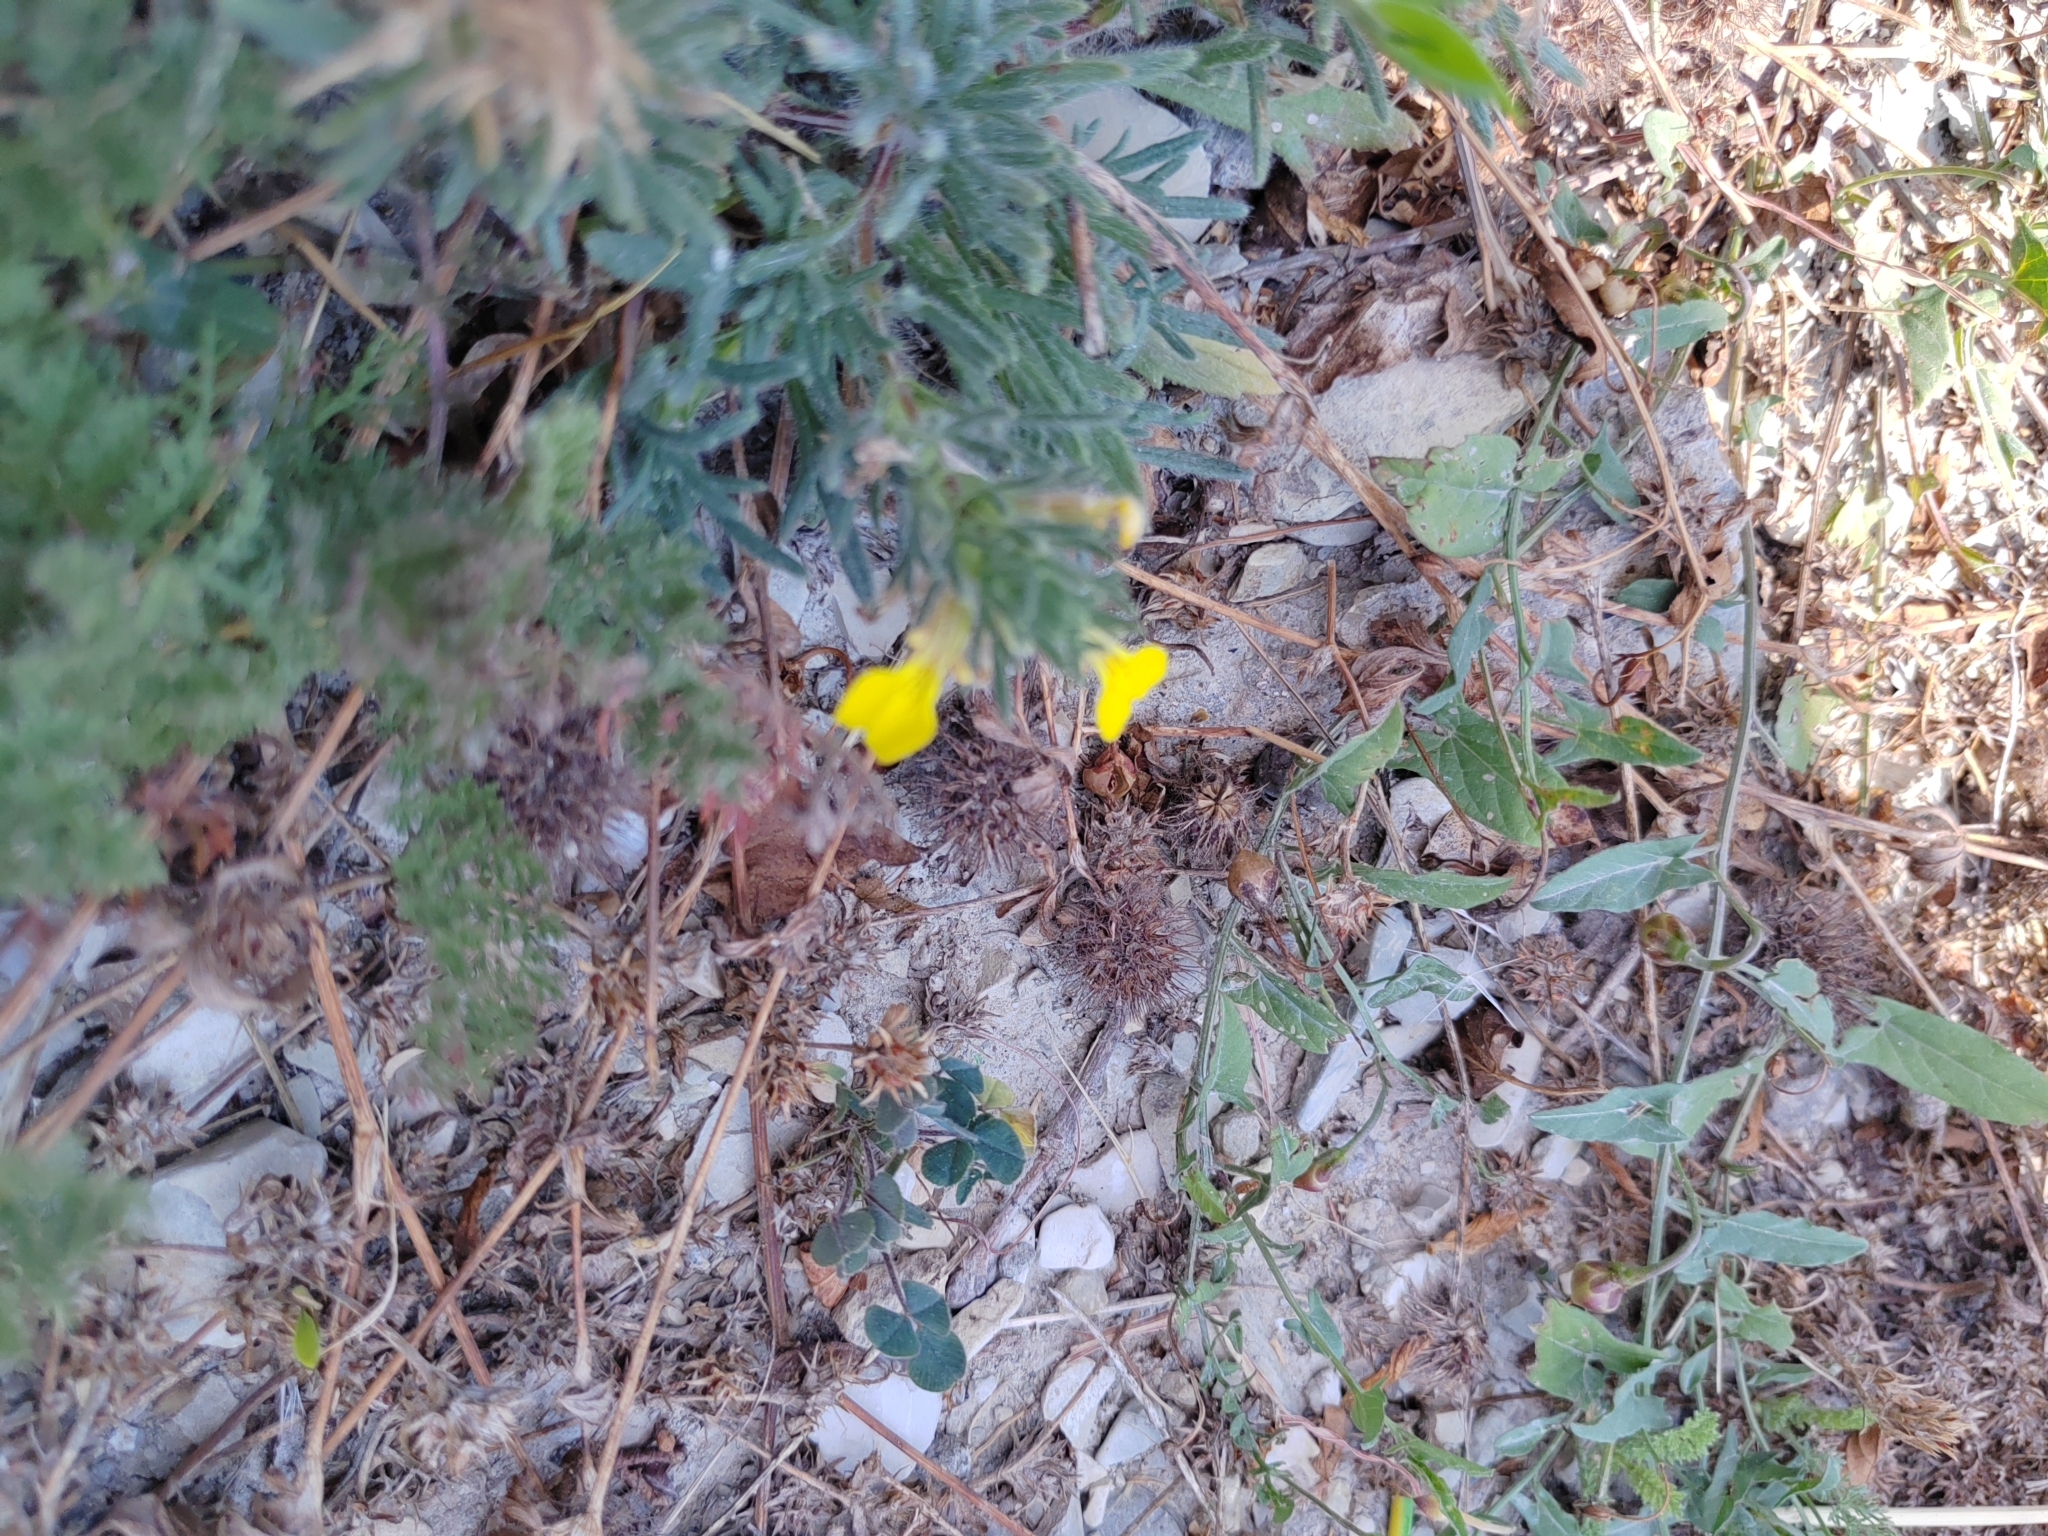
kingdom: Plantae
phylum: Tracheophyta
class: Magnoliopsida
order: Lamiales
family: Lamiaceae
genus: Ajuga
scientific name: Ajuga chamaepitys
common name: Ground-pine
